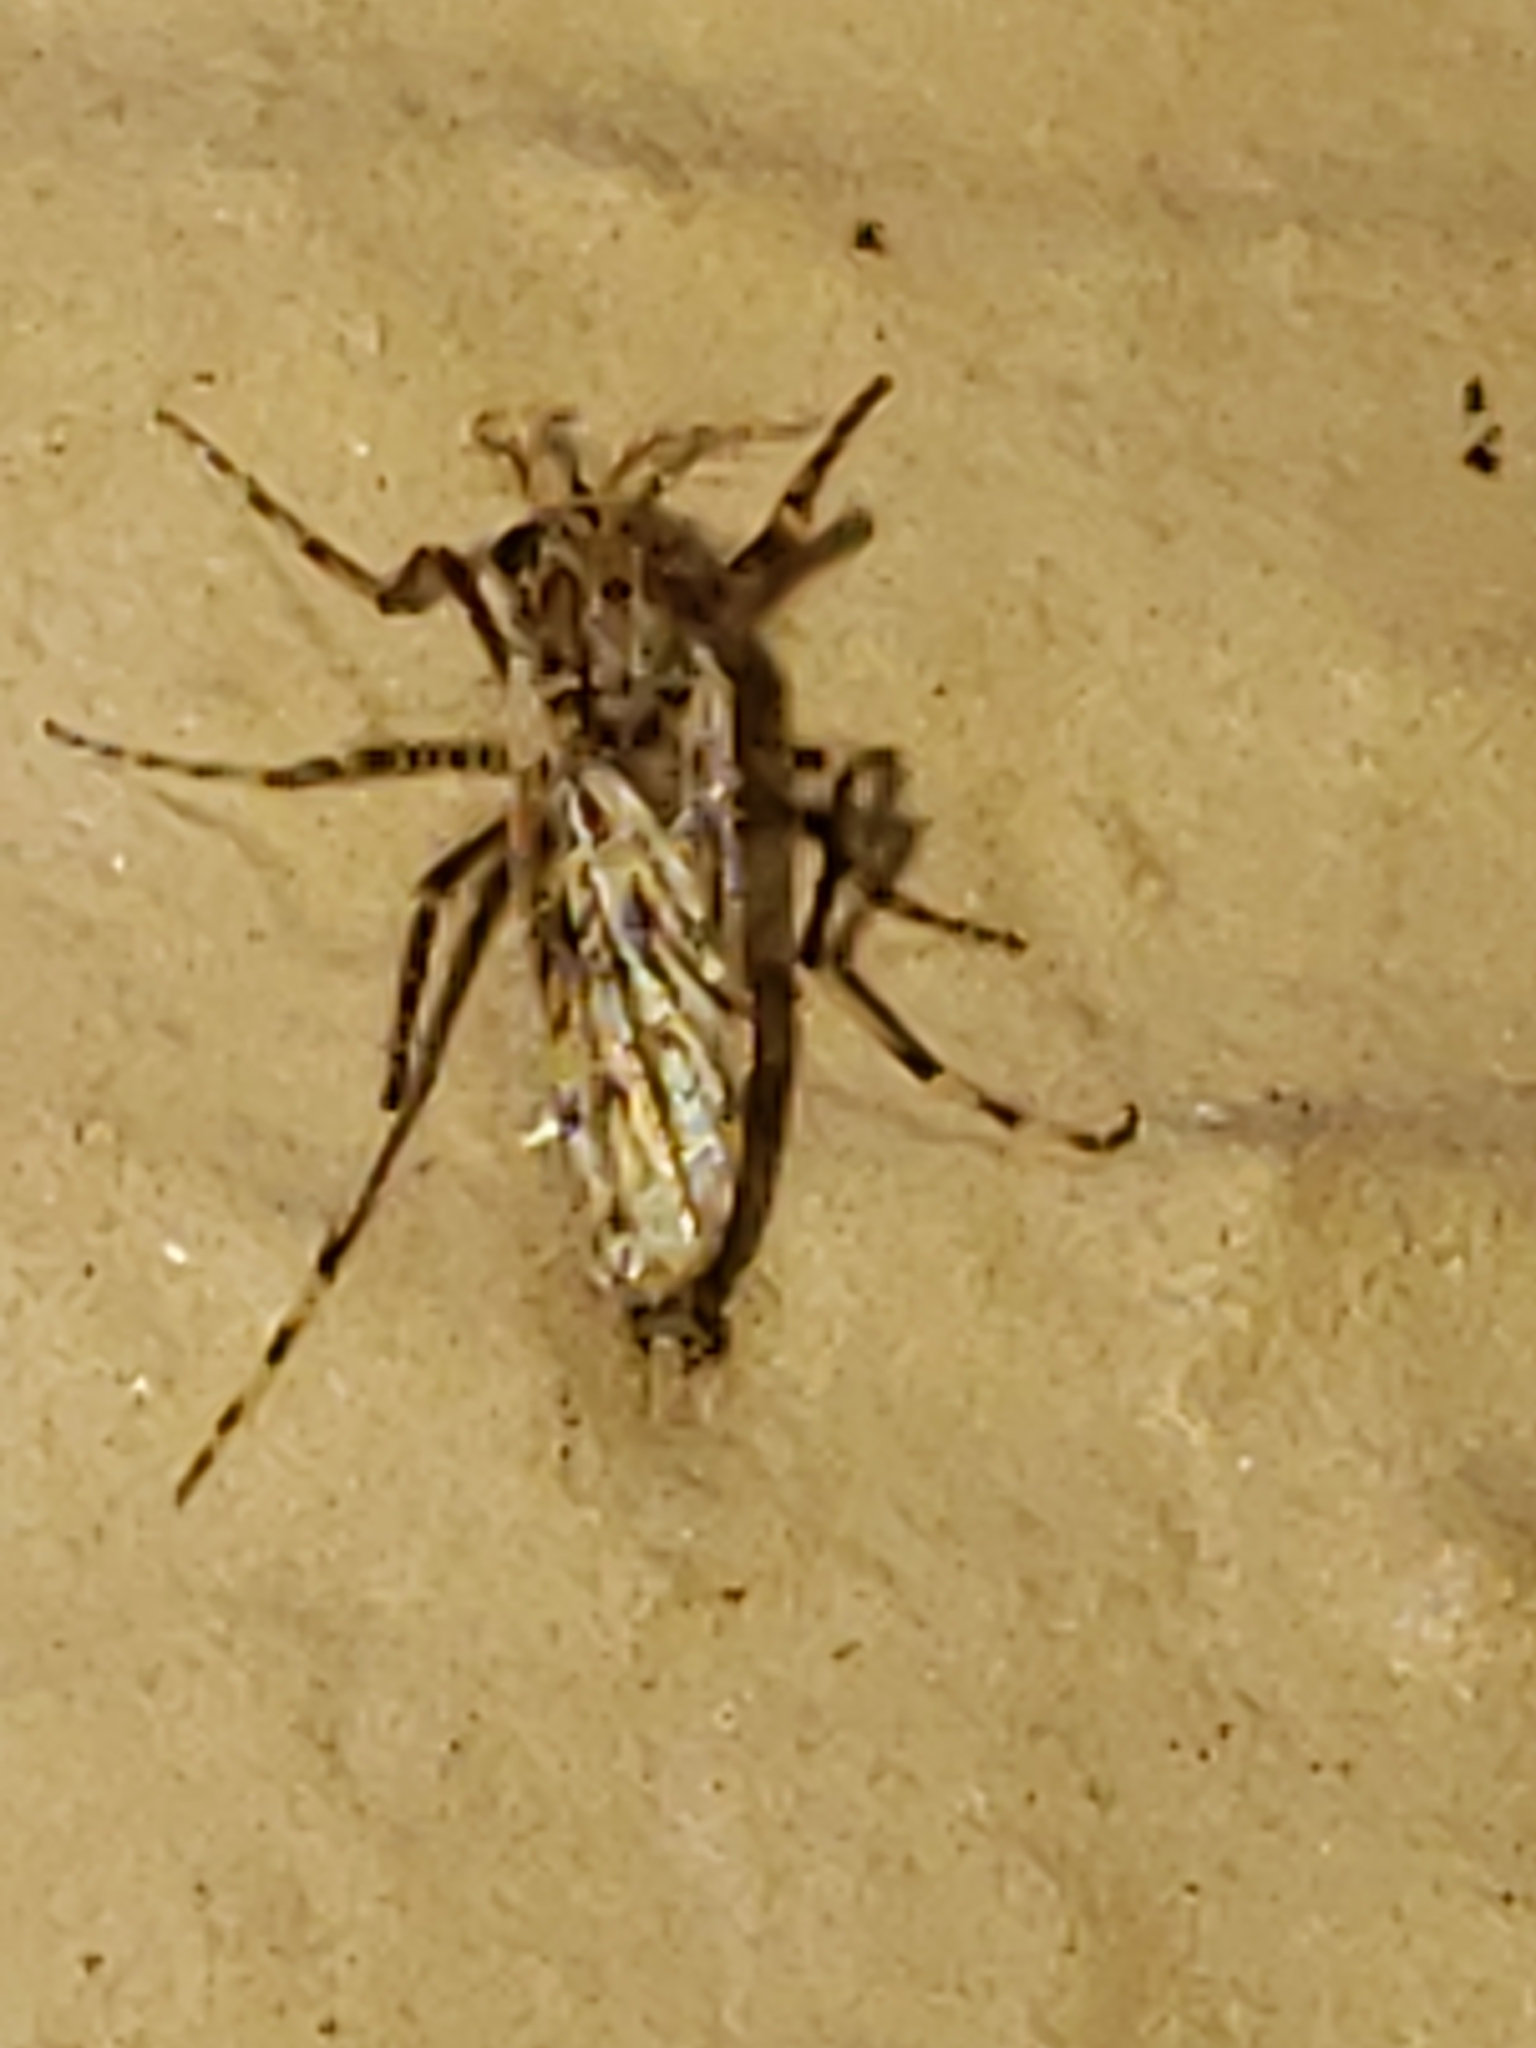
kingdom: Animalia
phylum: Arthropoda
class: Insecta
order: Diptera
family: Chaoboridae
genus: Chaoborus
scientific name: Chaoborus punctipennis
